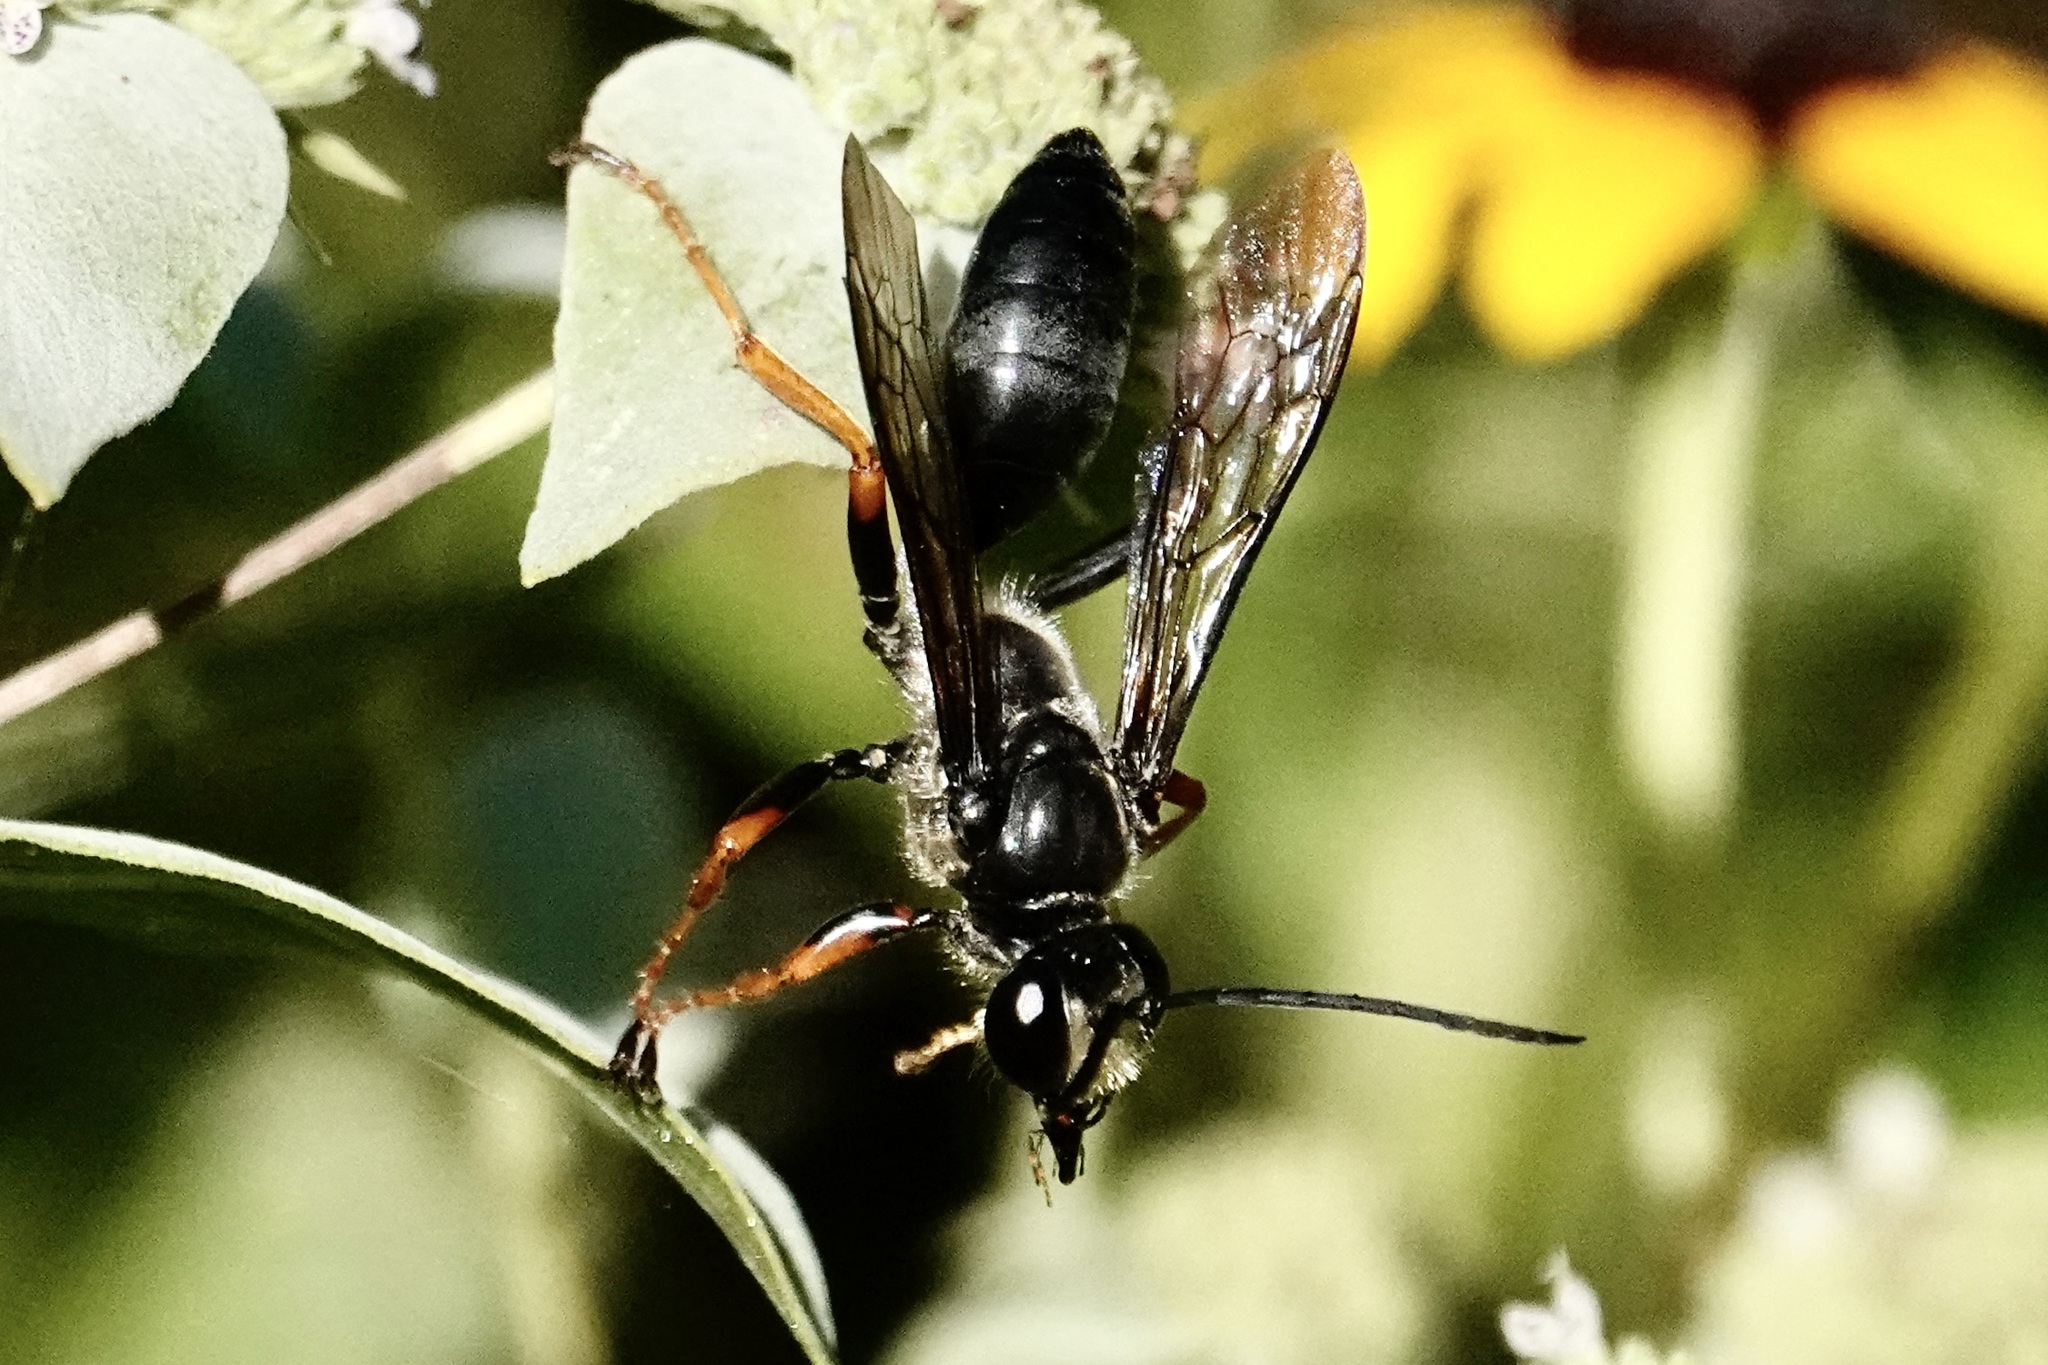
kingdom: Animalia
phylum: Arthropoda
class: Insecta
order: Hymenoptera
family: Sphecidae
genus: Sphex
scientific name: Sphex nudus
